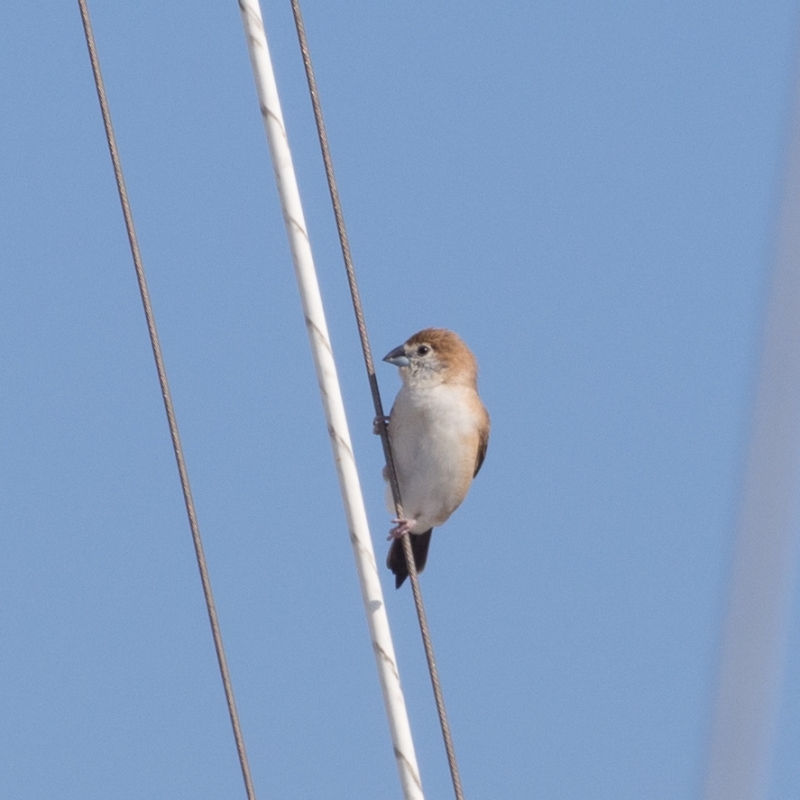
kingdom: Animalia
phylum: Chordata
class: Aves
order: Passeriformes
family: Estrildidae
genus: Euodice
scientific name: Euodice malabarica
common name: Indian silverbill
